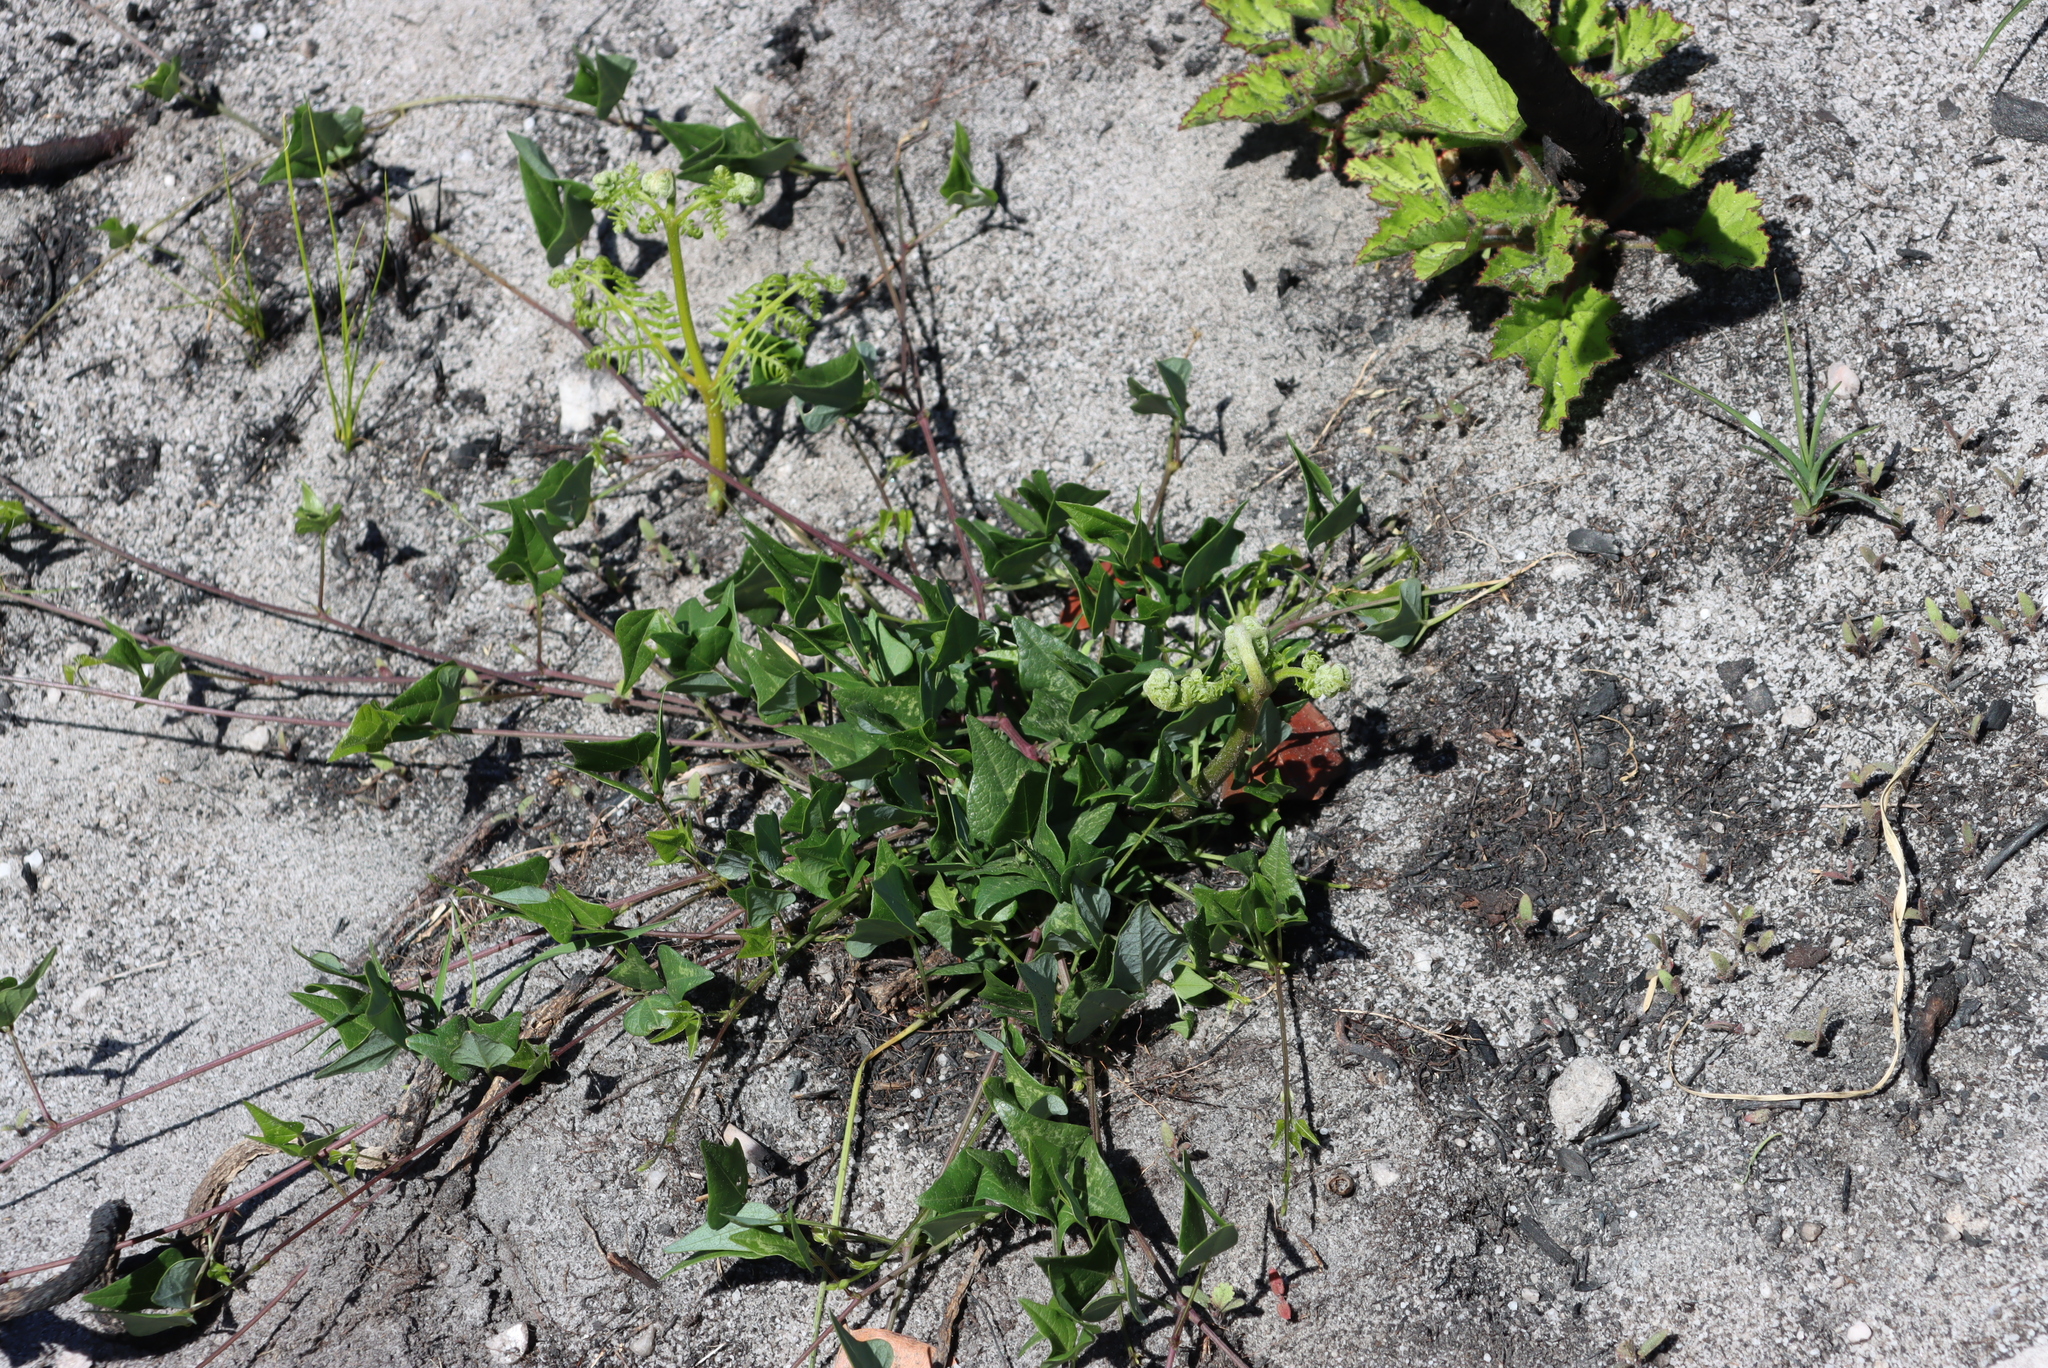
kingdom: Plantae
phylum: Tracheophyta
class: Magnoliopsida
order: Fabales
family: Fabaceae
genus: Dipogon
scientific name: Dipogon lignosus
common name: Okie bean
